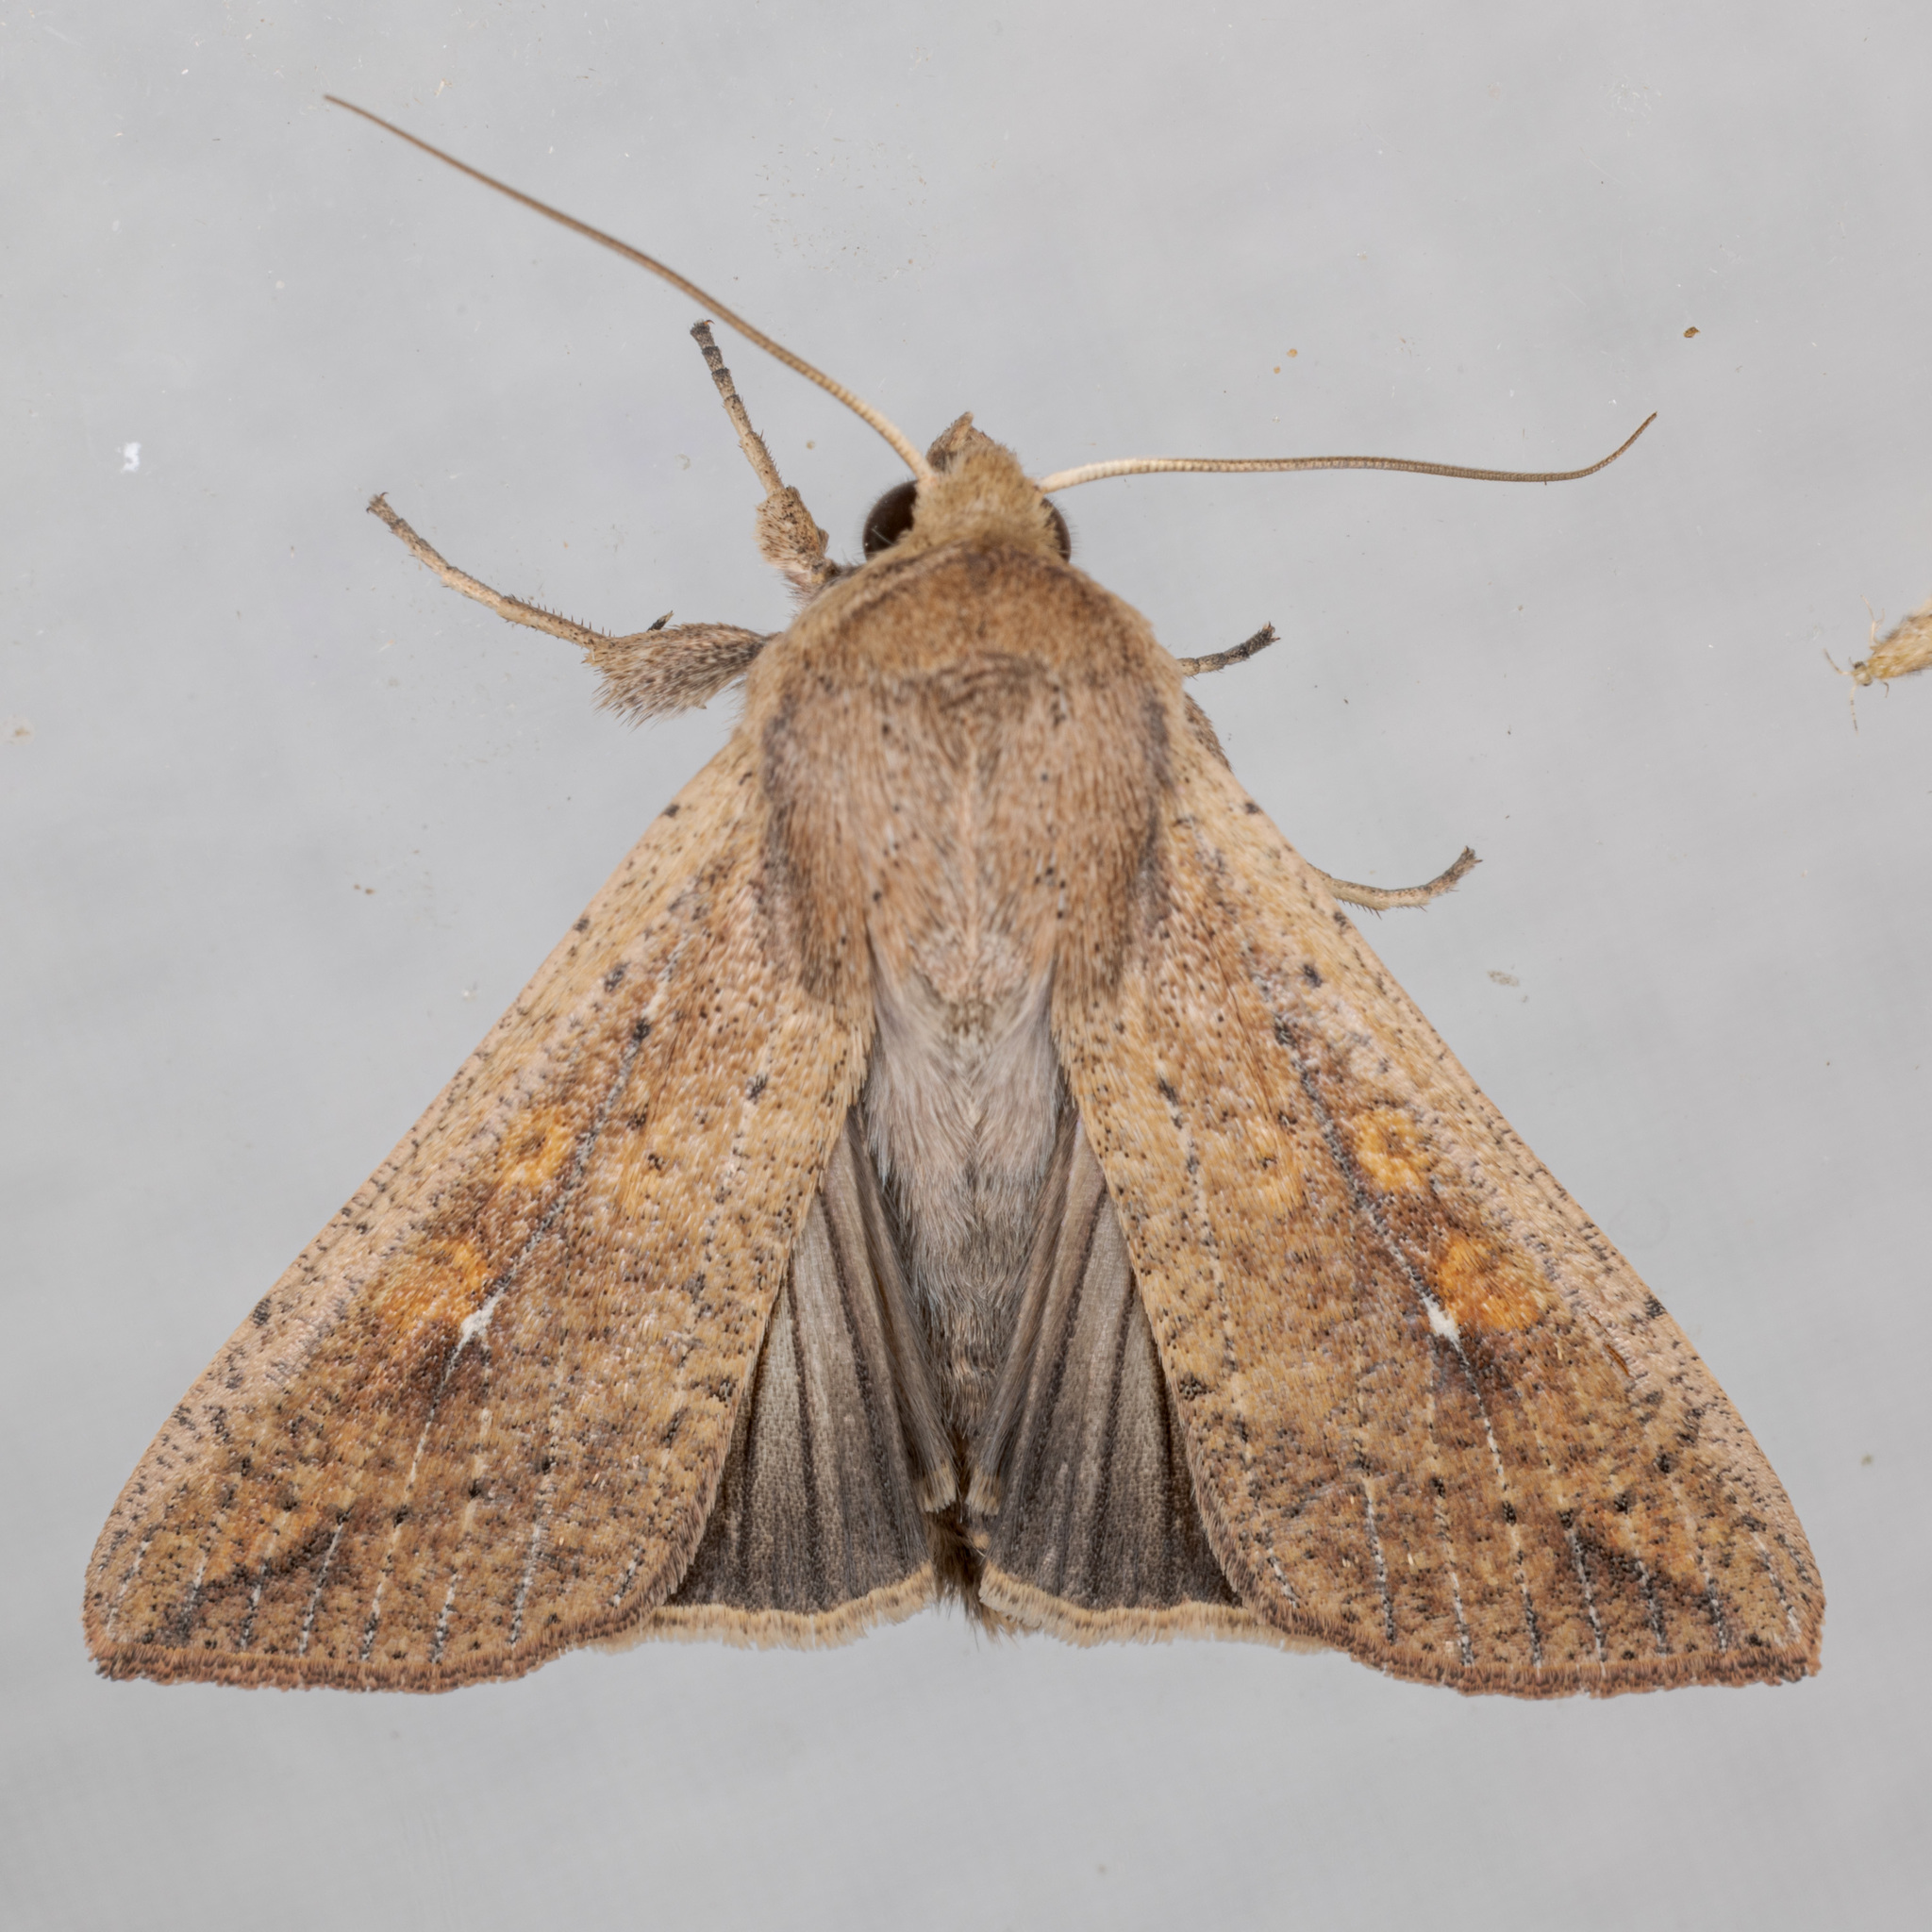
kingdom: Animalia
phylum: Arthropoda
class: Insecta
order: Lepidoptera
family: Noctuidae
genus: Mythimna
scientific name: Mythimna unipuncta
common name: White-speck
